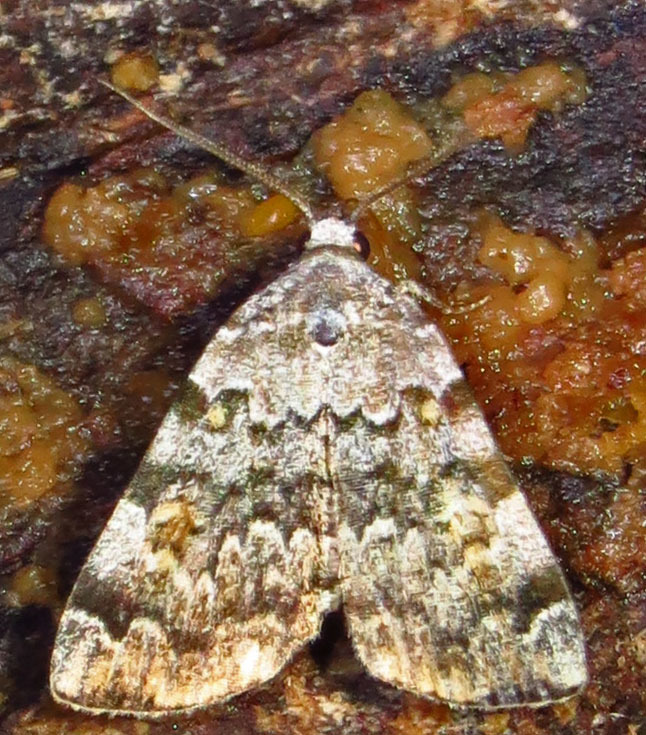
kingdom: Animalia
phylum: Arthropoda
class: Insecta
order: Lepidoptera
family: Erebidae
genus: Idia
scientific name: Idia americalis
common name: American idia moth
